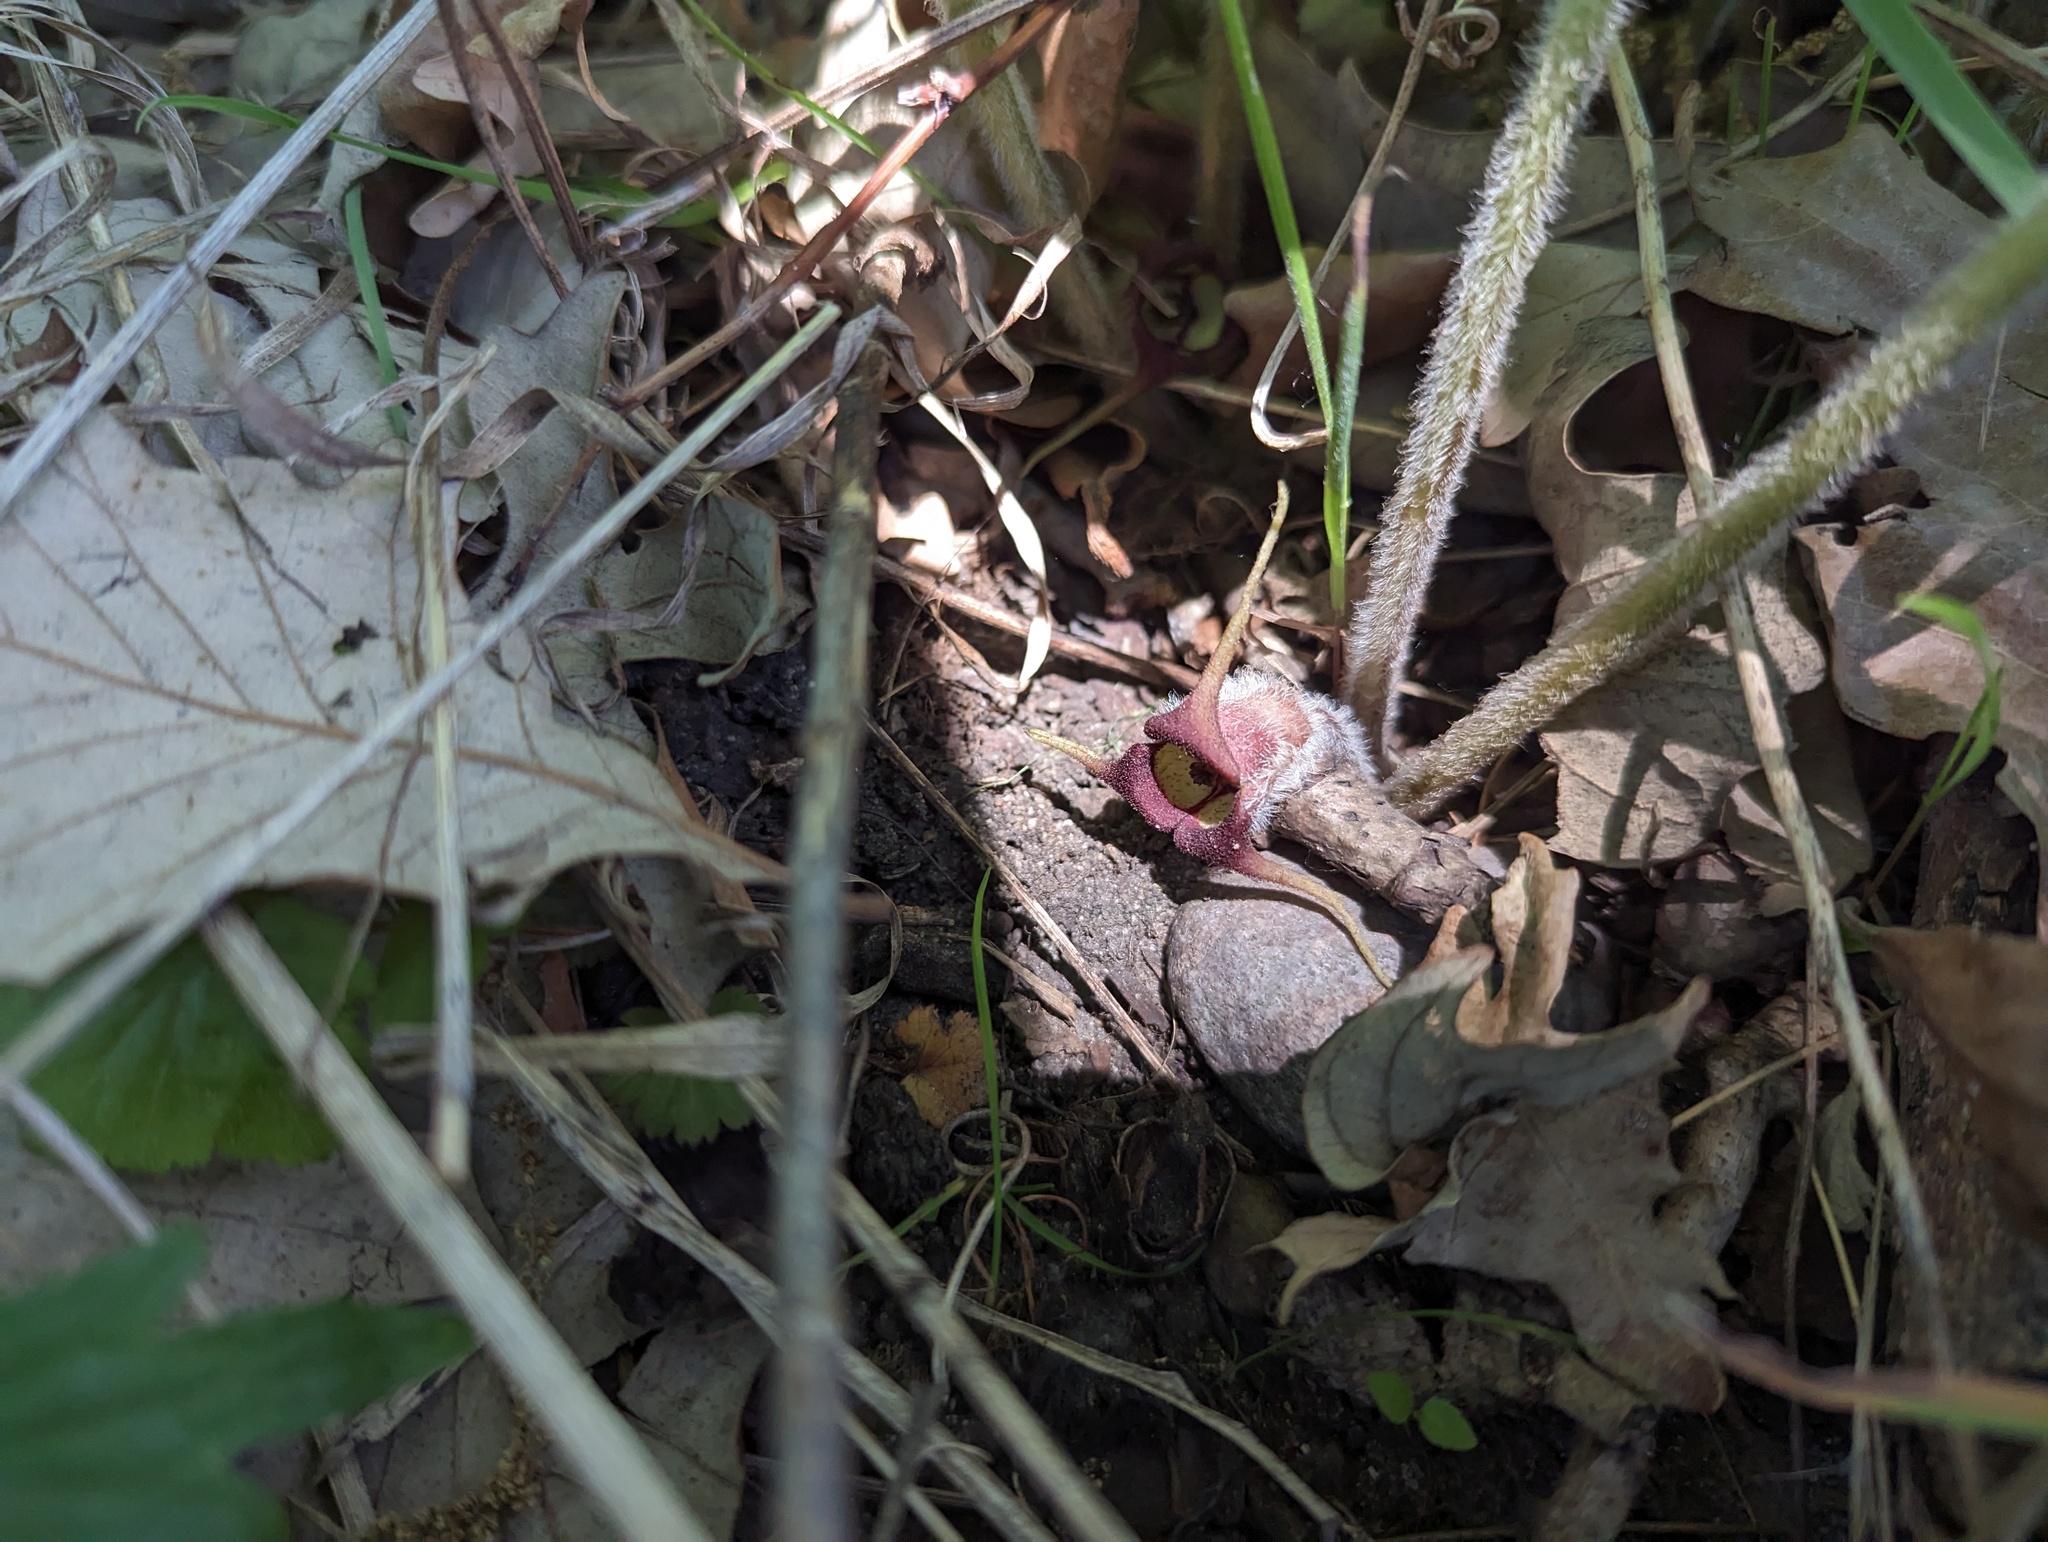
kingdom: Plantae
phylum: Tracheophyta
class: Magnoliopsida
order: Piperales
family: Aristolochiaceae
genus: Asarum
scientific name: Asarum canadense
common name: Wild ginger
